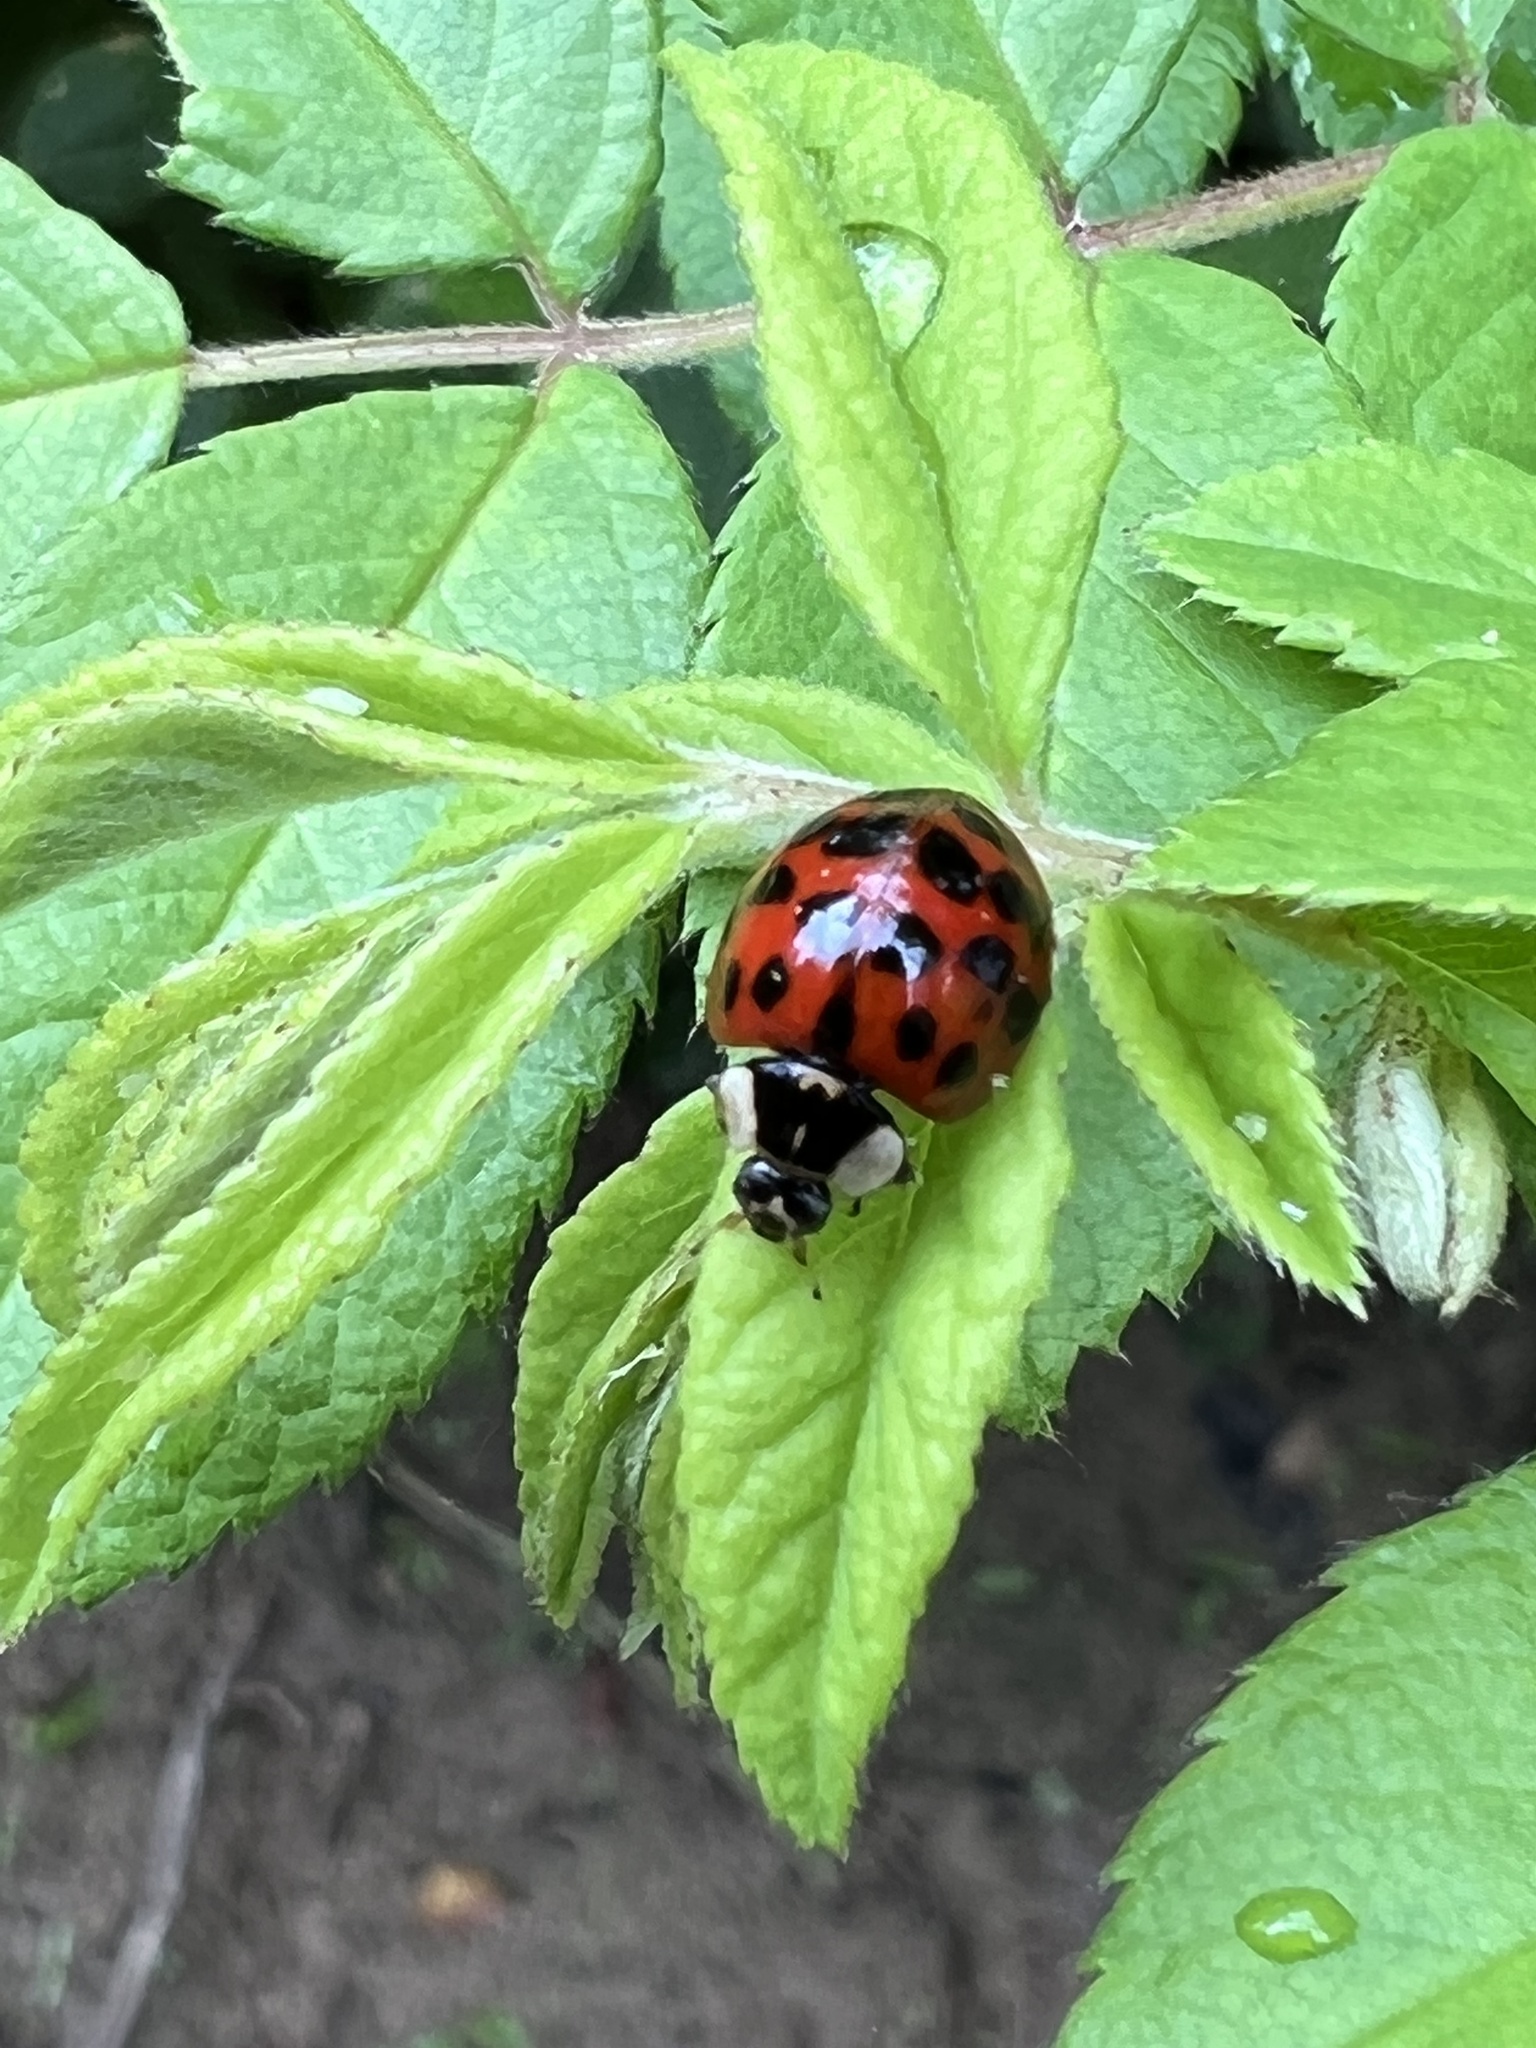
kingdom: Animalia
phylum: Arthropoda
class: Insecta
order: Coleoptera
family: Coccinellidae
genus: Harmonia
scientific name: Harmonia axyridis
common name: Harlequin ladybird
